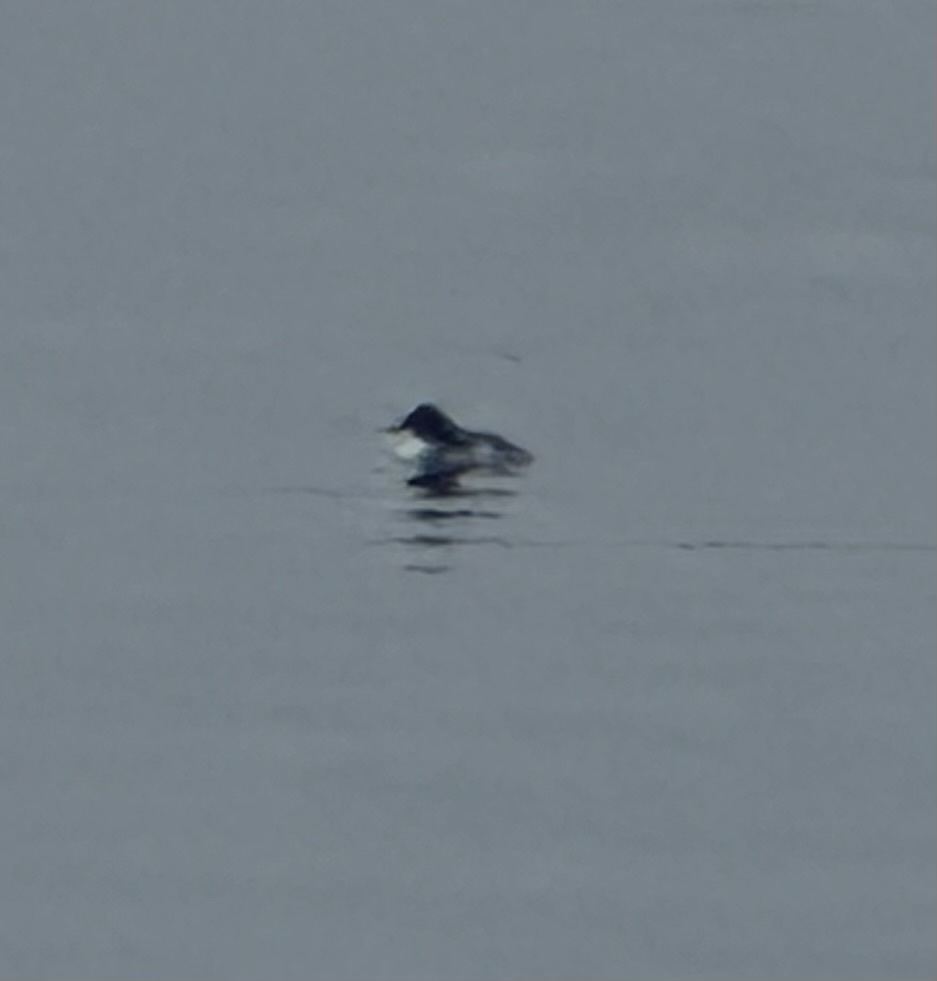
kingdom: Animalia
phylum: Chordata
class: Aves
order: Anseriformes
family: Anatidae
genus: Bucephala
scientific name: Bucephala clangula
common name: Common goldeneye
